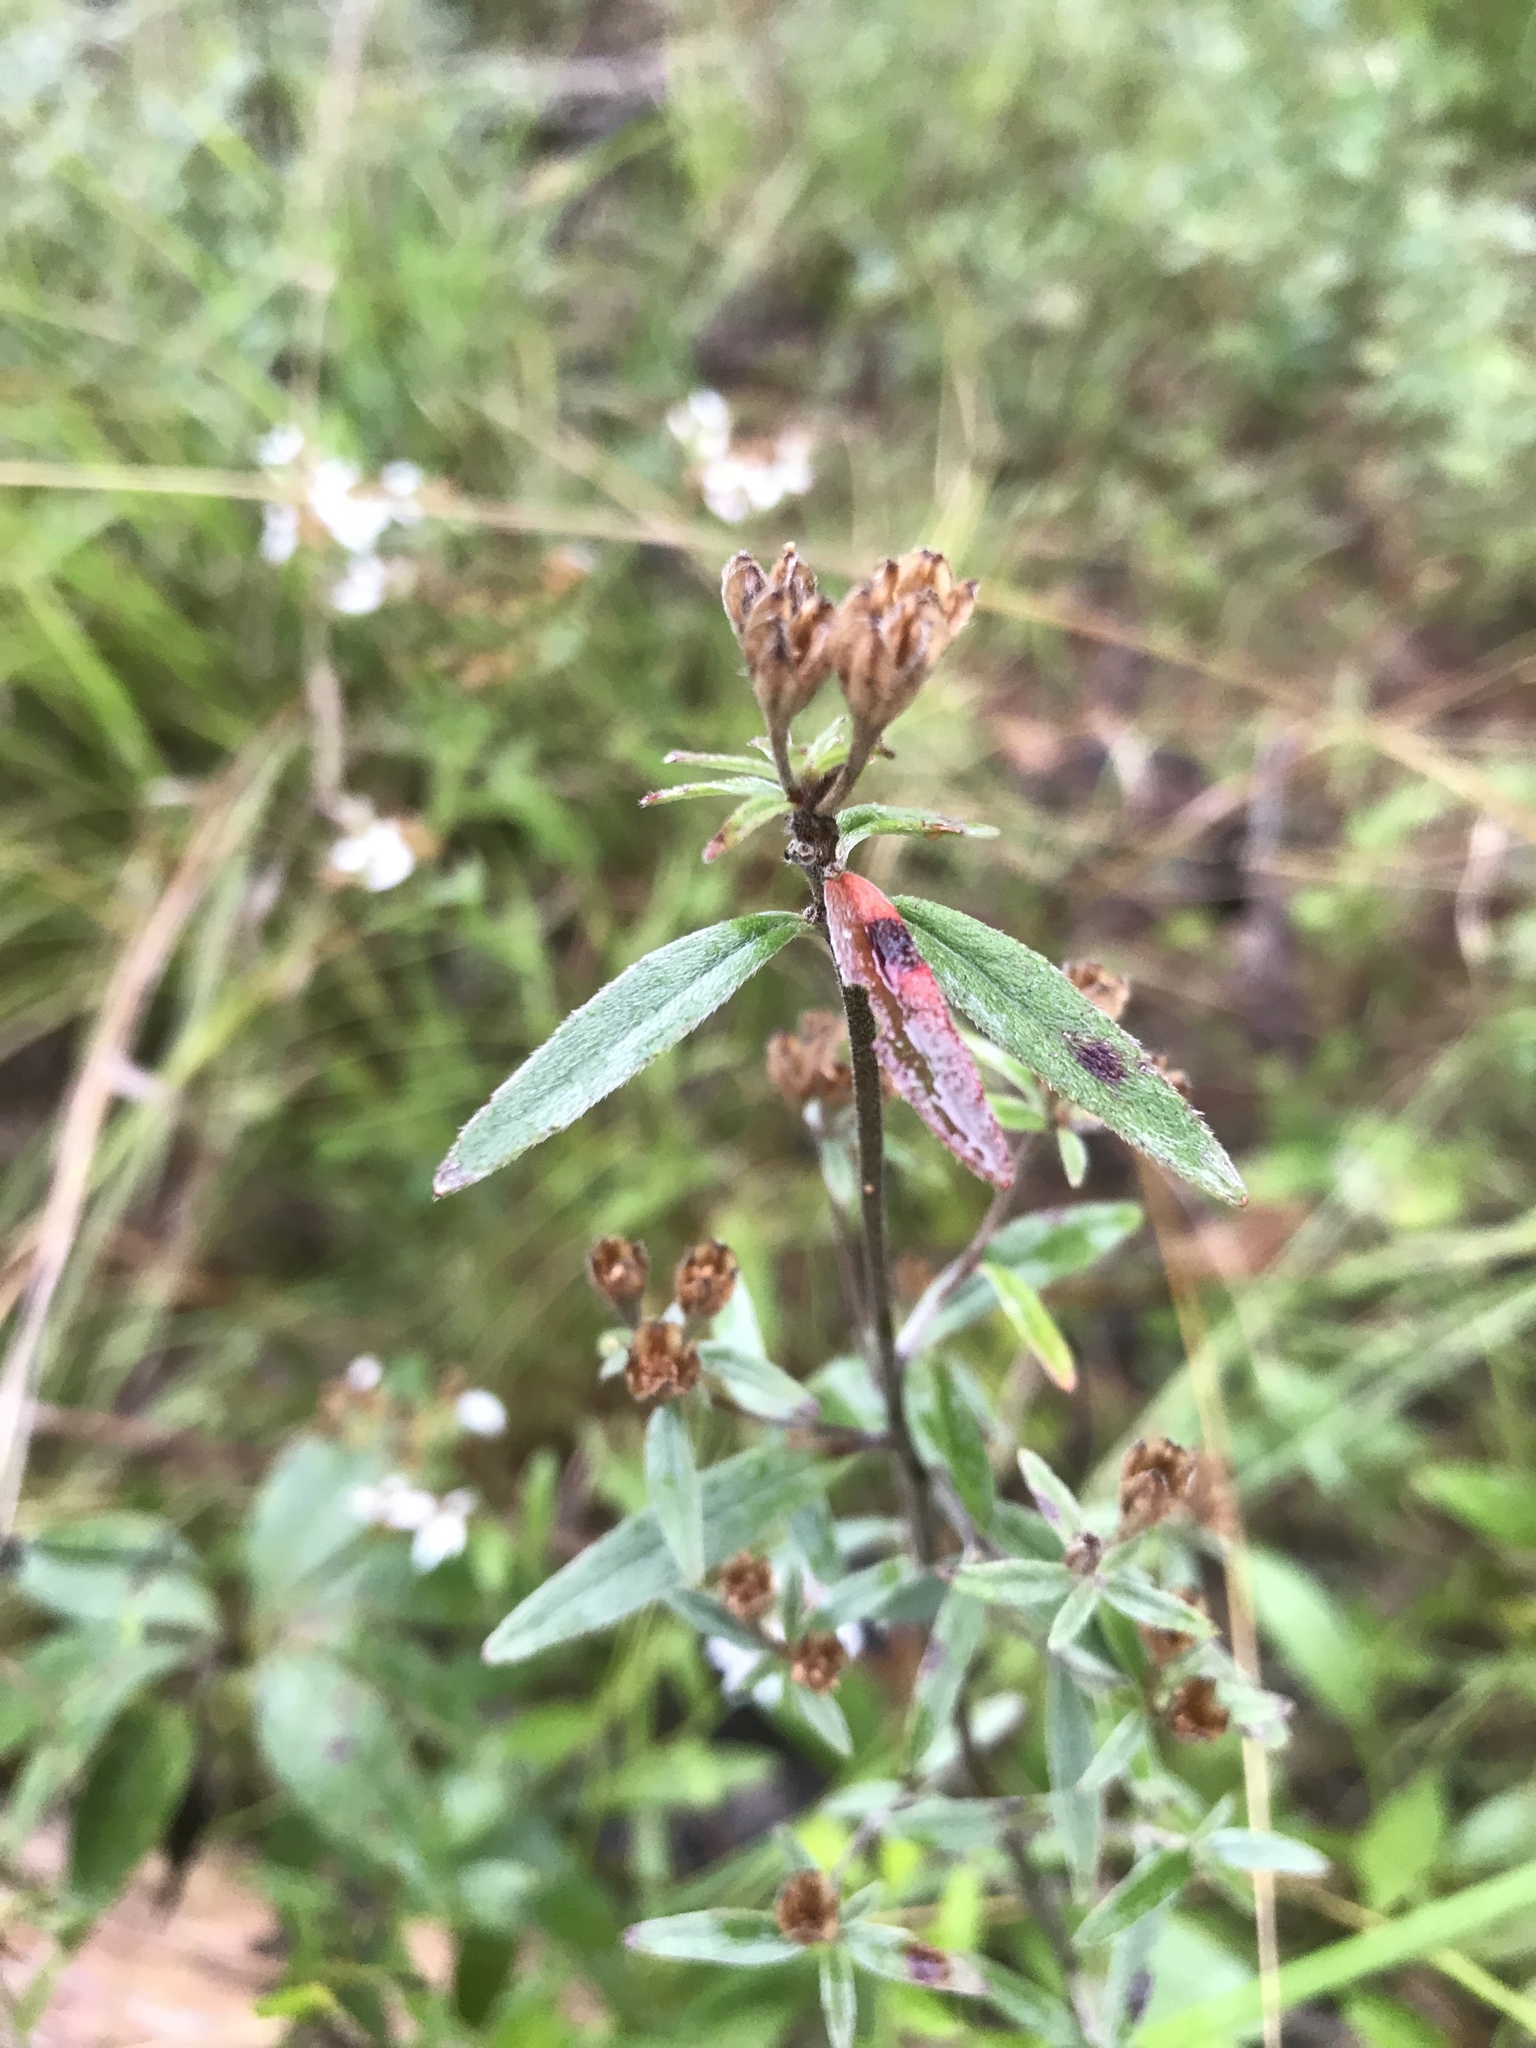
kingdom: Plantae
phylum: Tracheophyta
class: Magnoliopsida
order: Myrtales
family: Onagraceae
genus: Oenothera
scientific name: Oenothera fruticosa
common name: Southern sundrops
